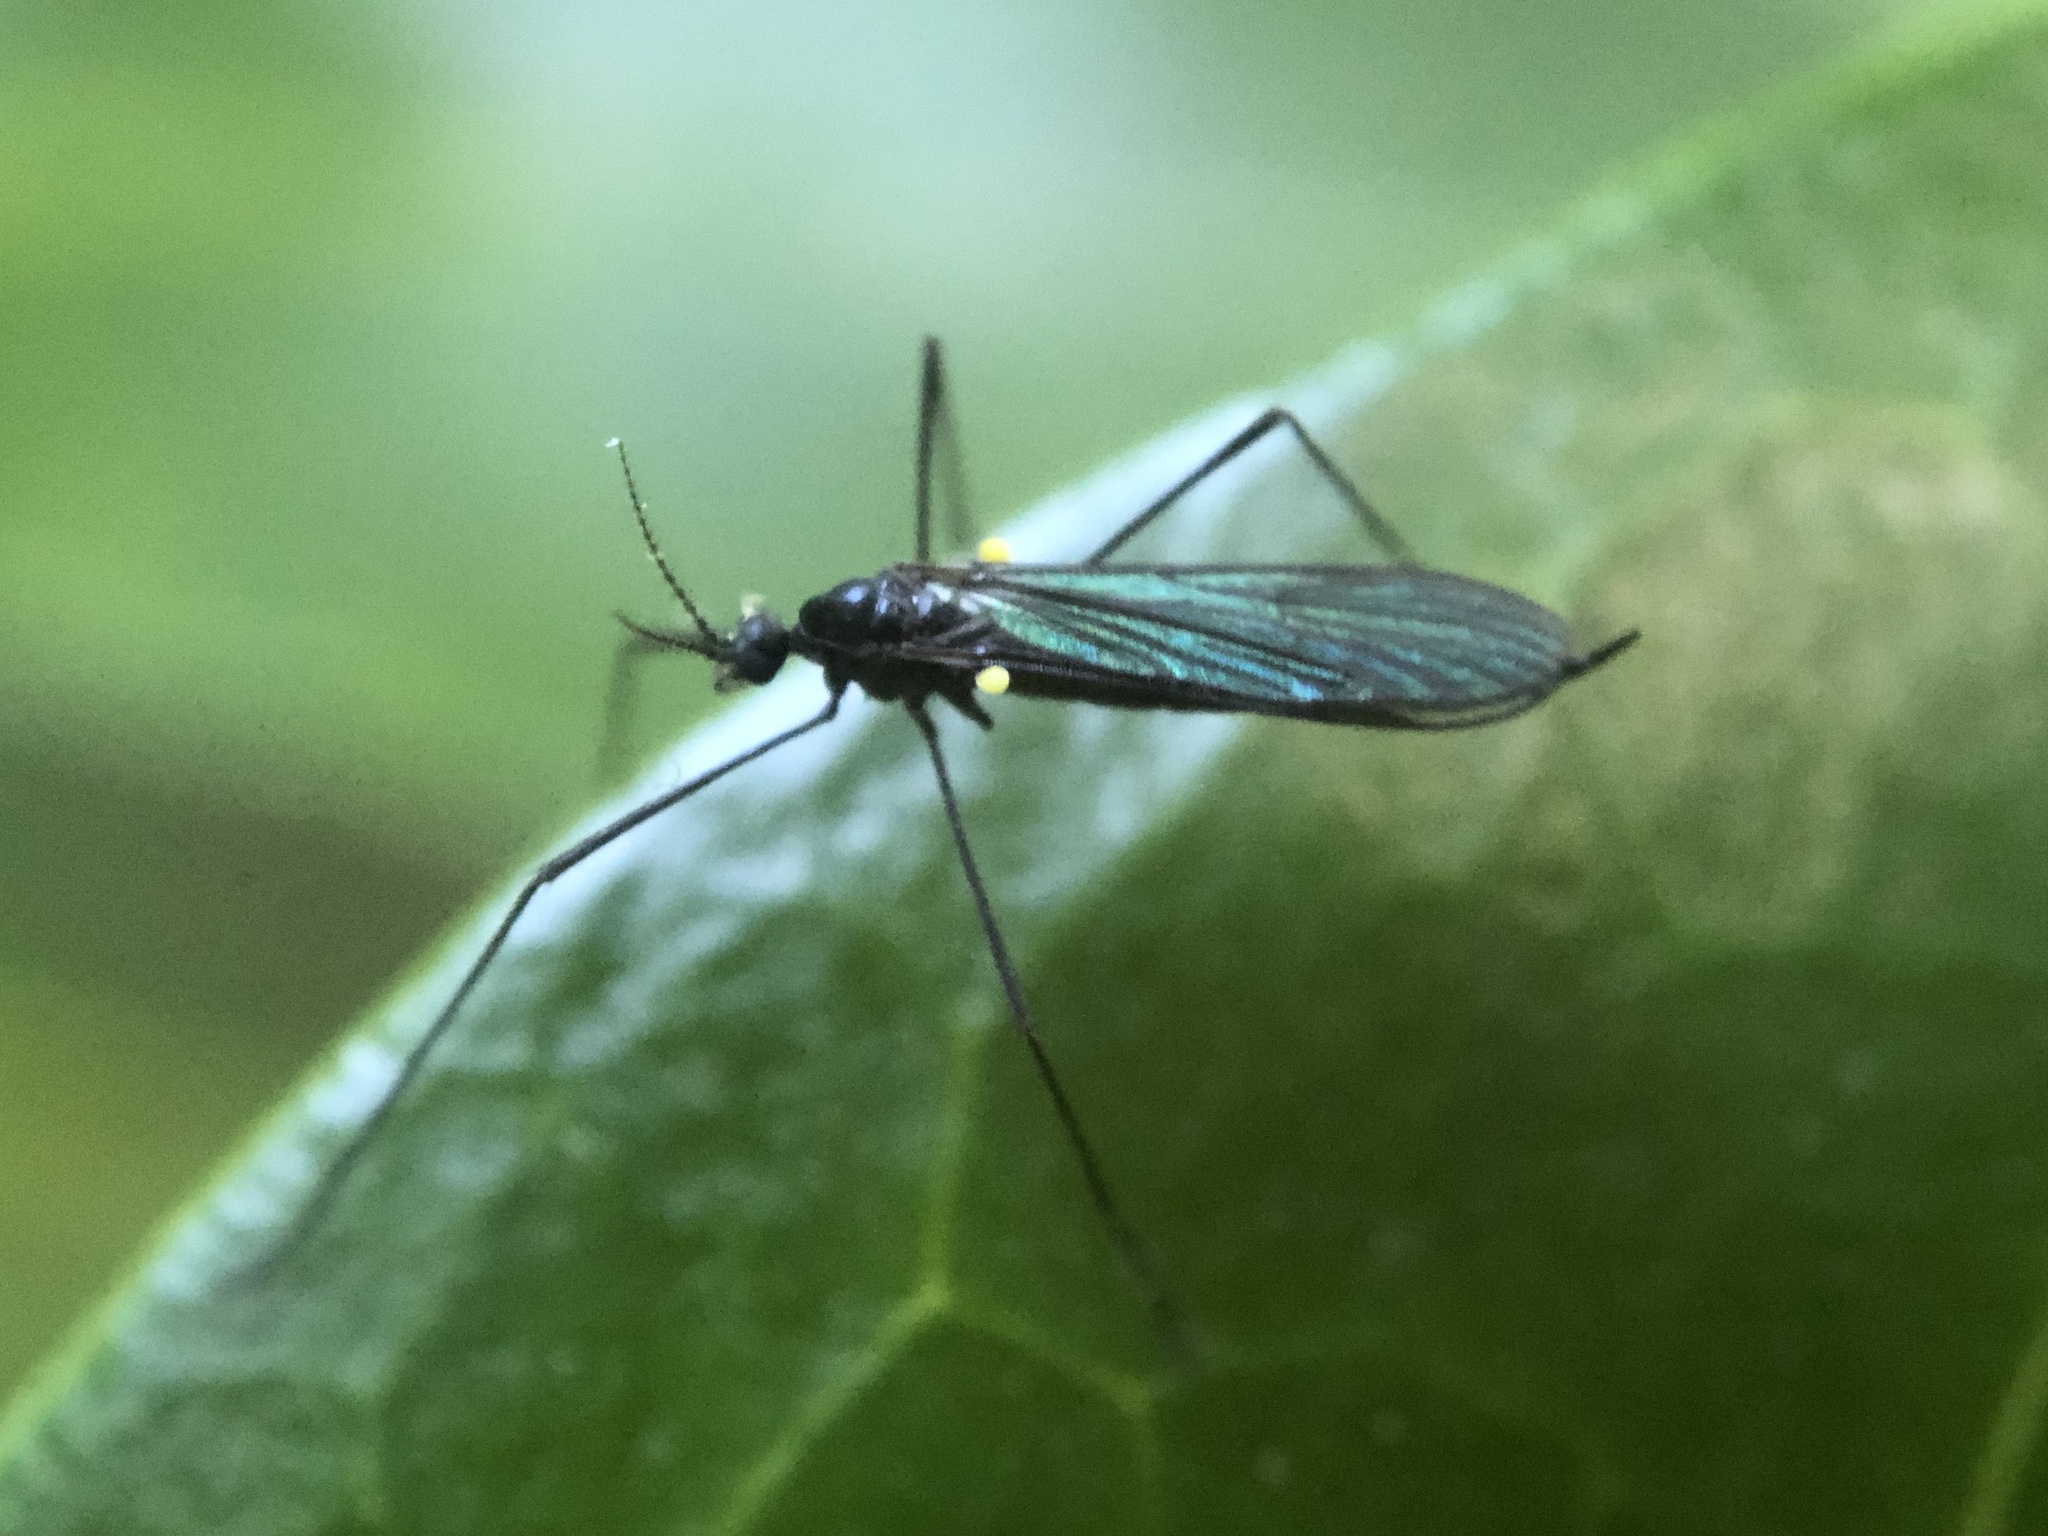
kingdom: Animalia
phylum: Arthropoda
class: Insecta
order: Diptera
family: Limoniidae
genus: Gnophomyia
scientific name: Gnophomyia tristissima
